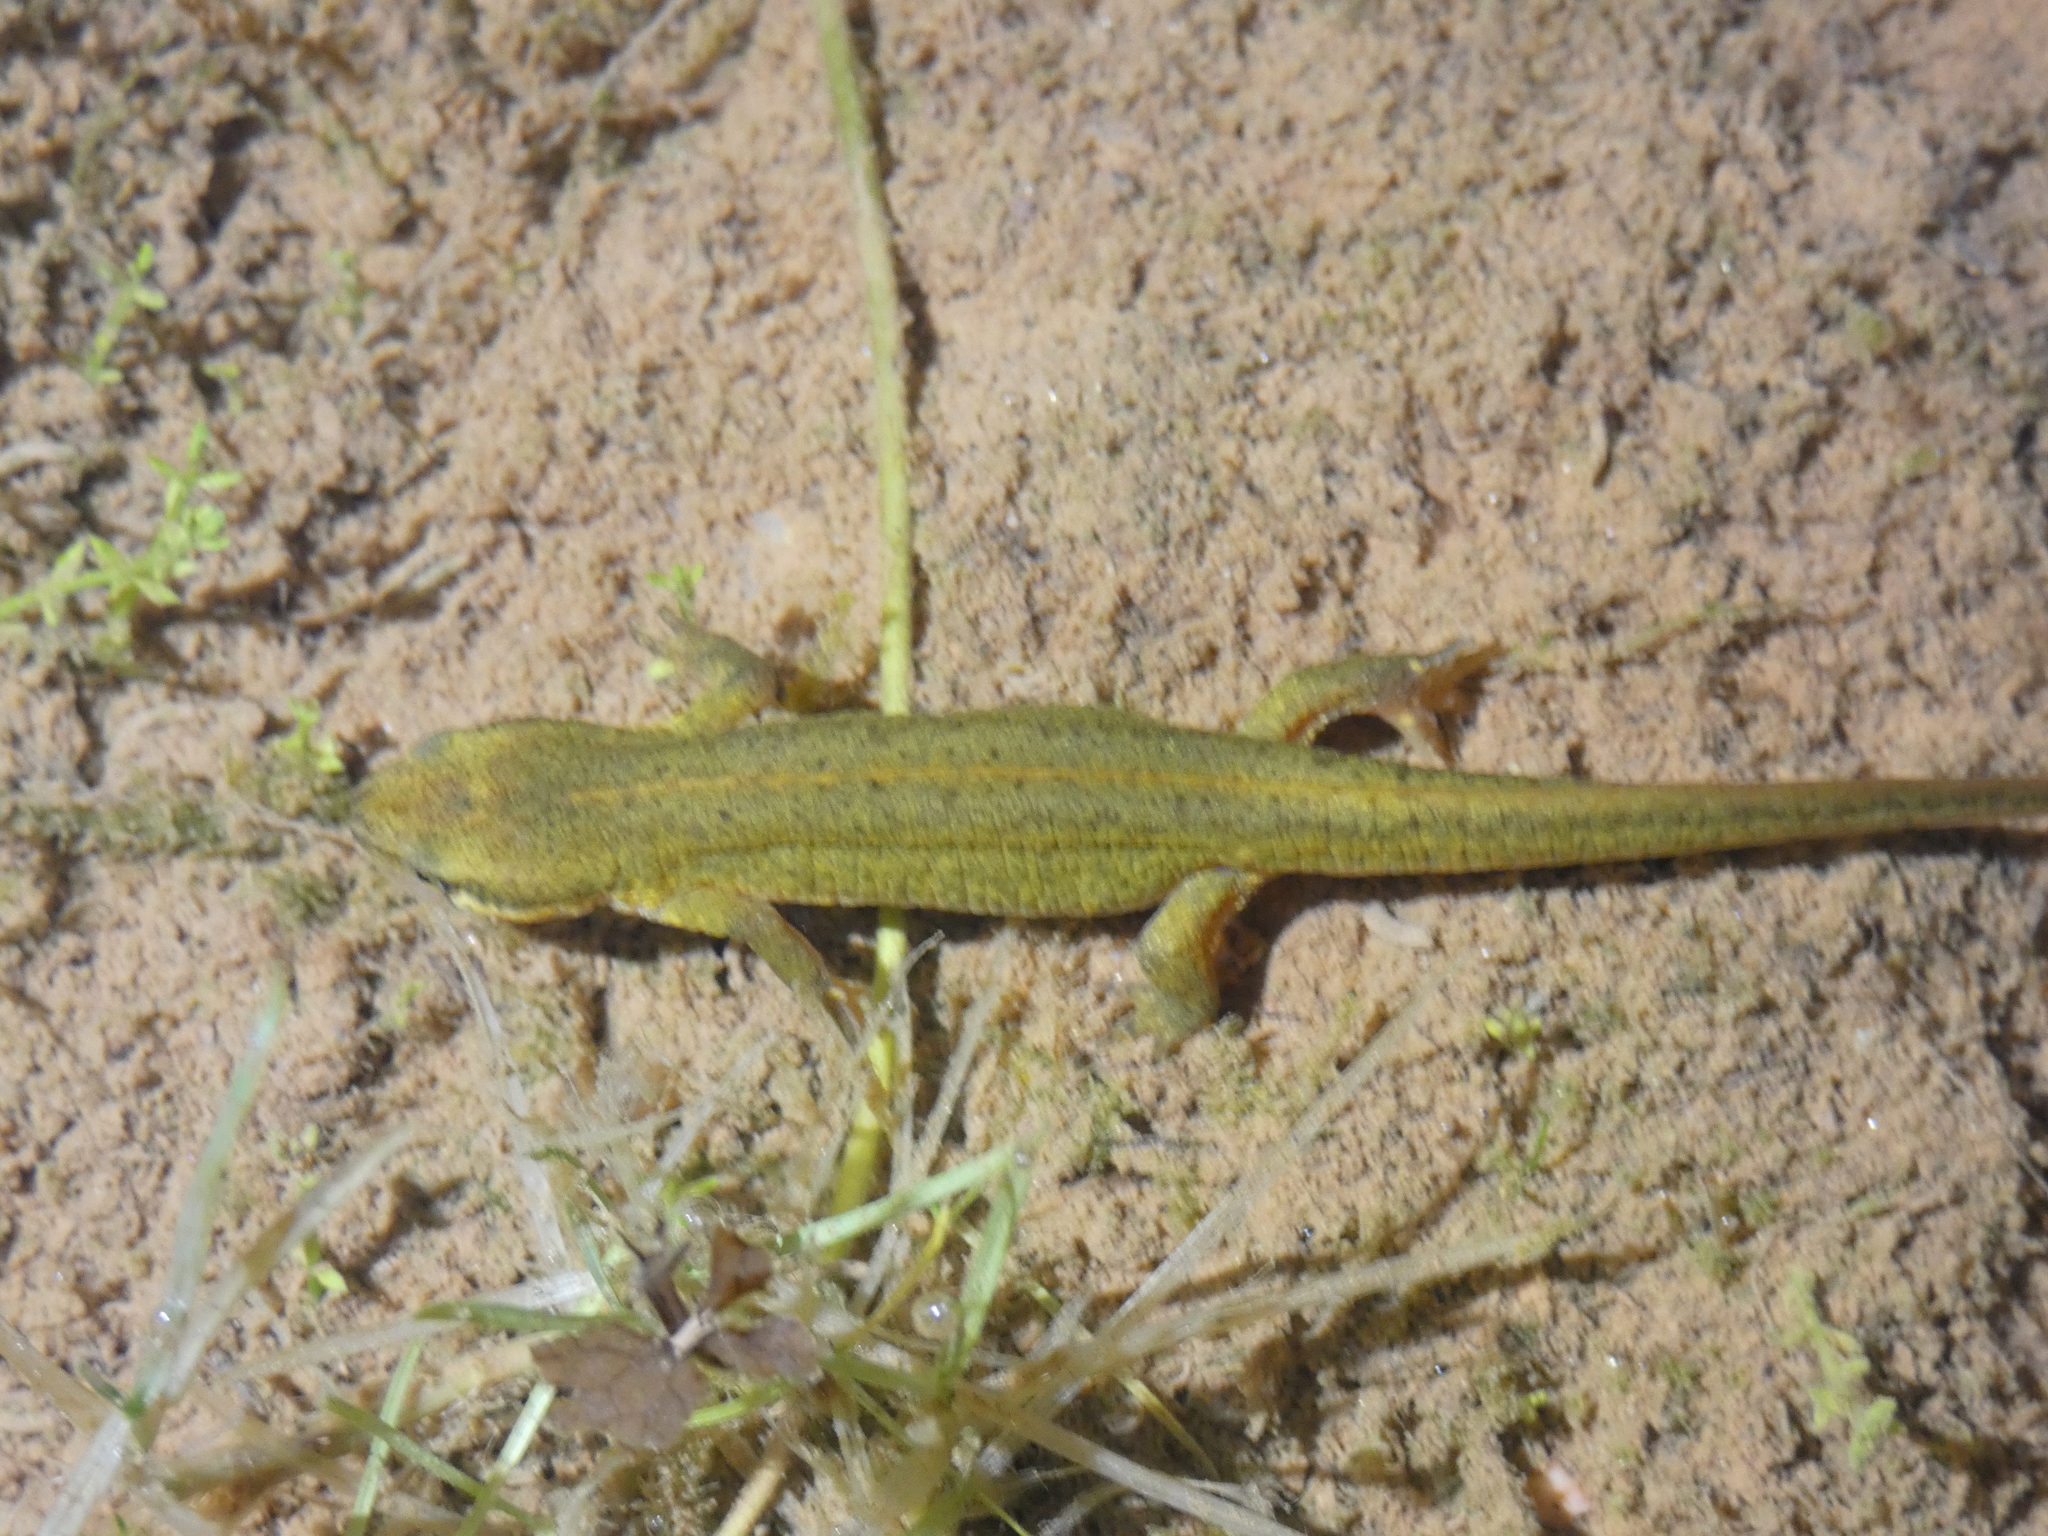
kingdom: Animalia
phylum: Chordata
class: Amphibia
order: Caudata
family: Salamandridae
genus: Lissotriton
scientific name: Lissotriton helveticus
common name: Palmate newt
